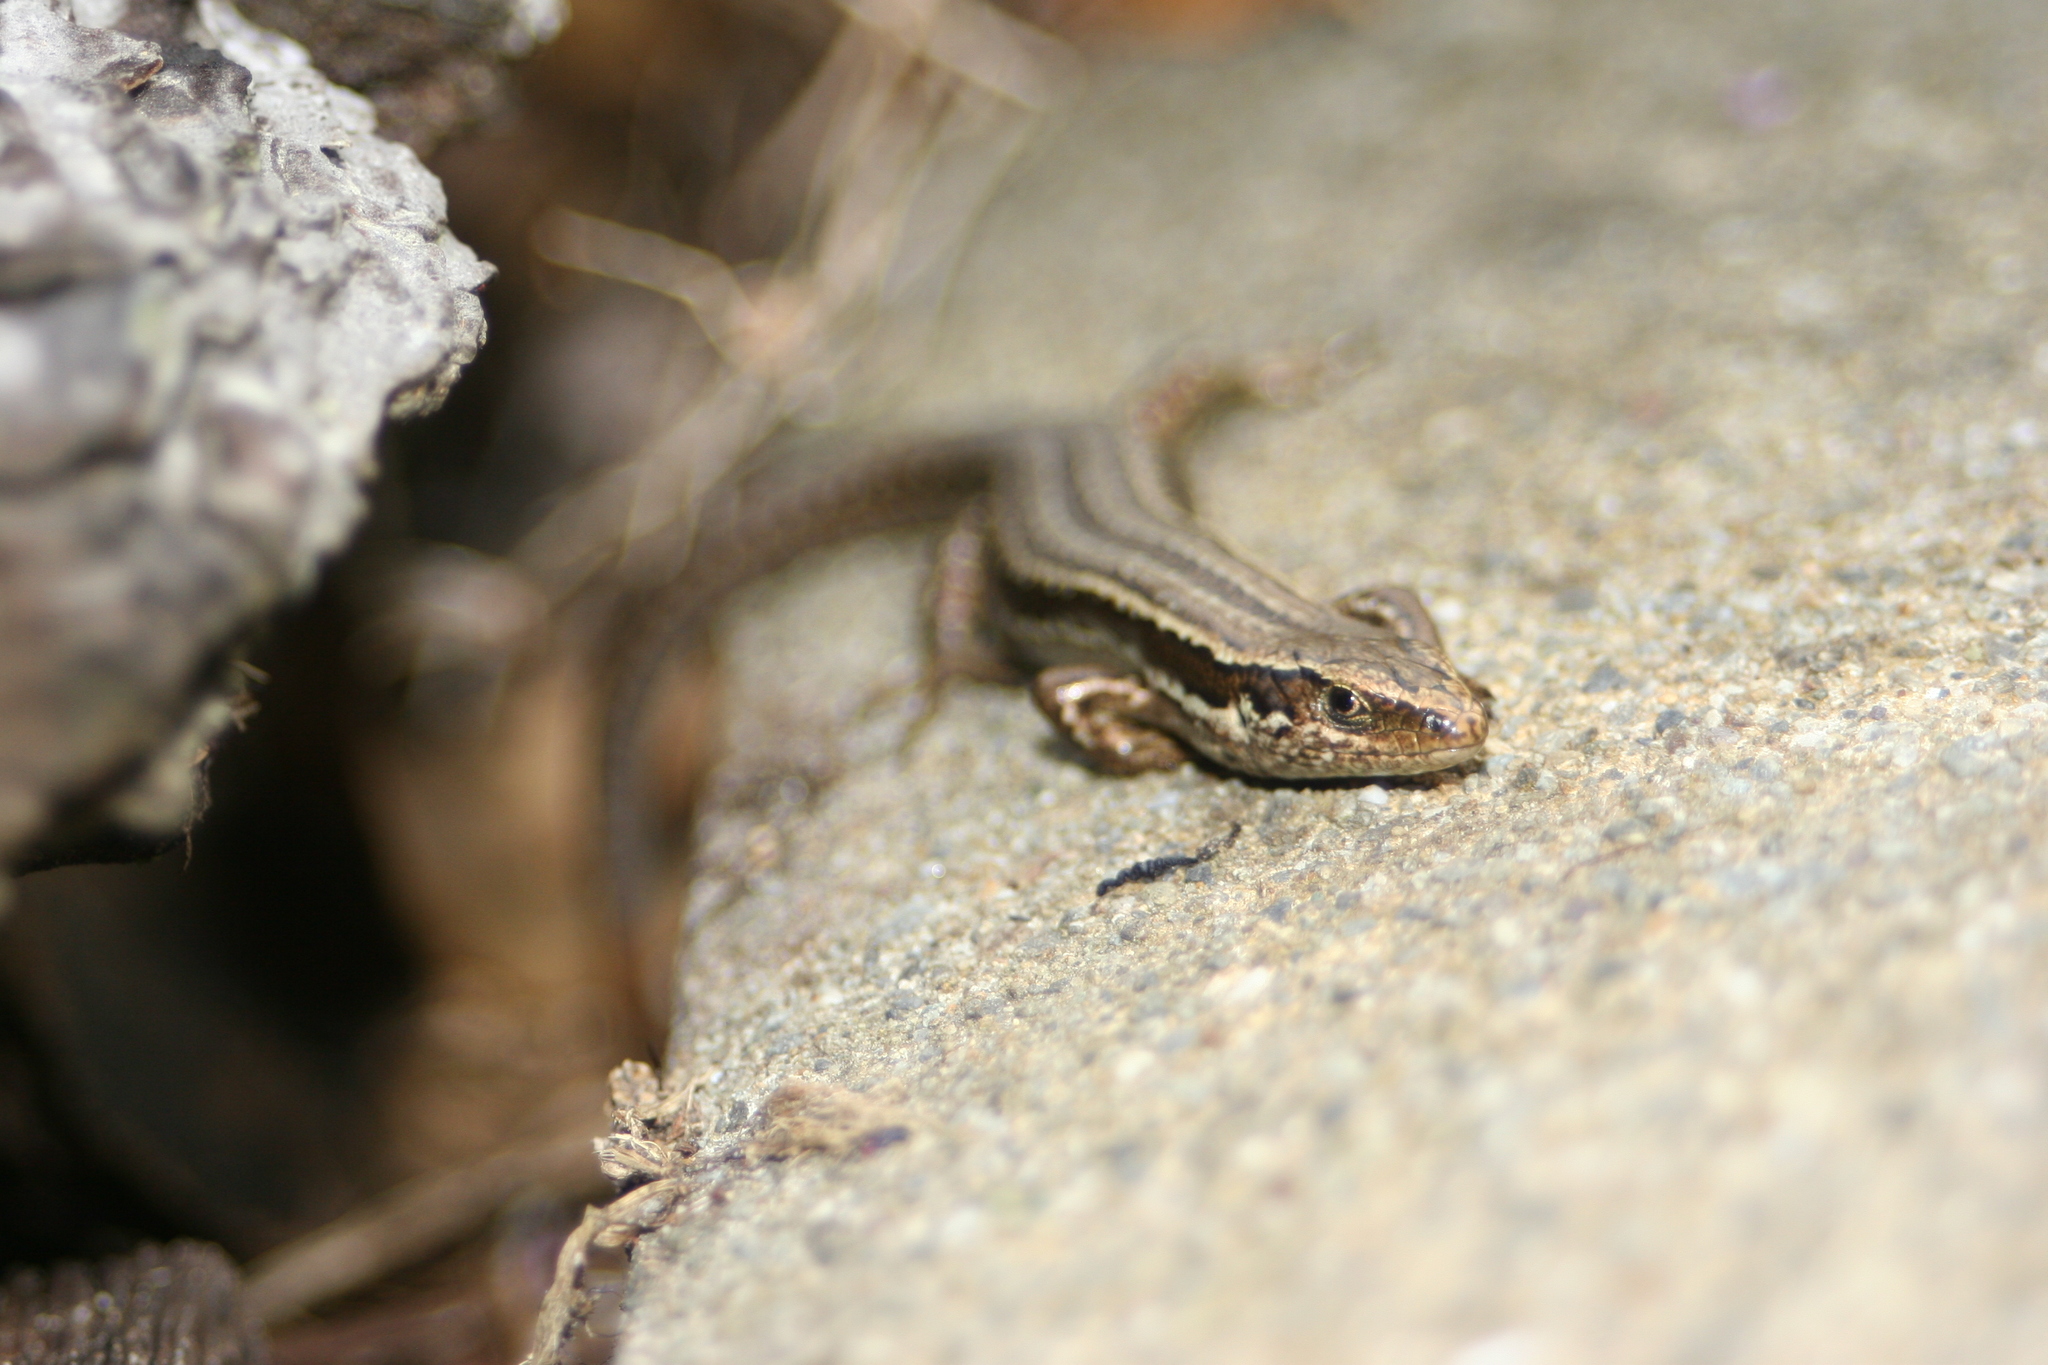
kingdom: Animalia
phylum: Chordata
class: Squamata
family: Scincidae
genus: Oligosoma
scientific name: Oligosoma polychroma
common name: Common new zealand skink
